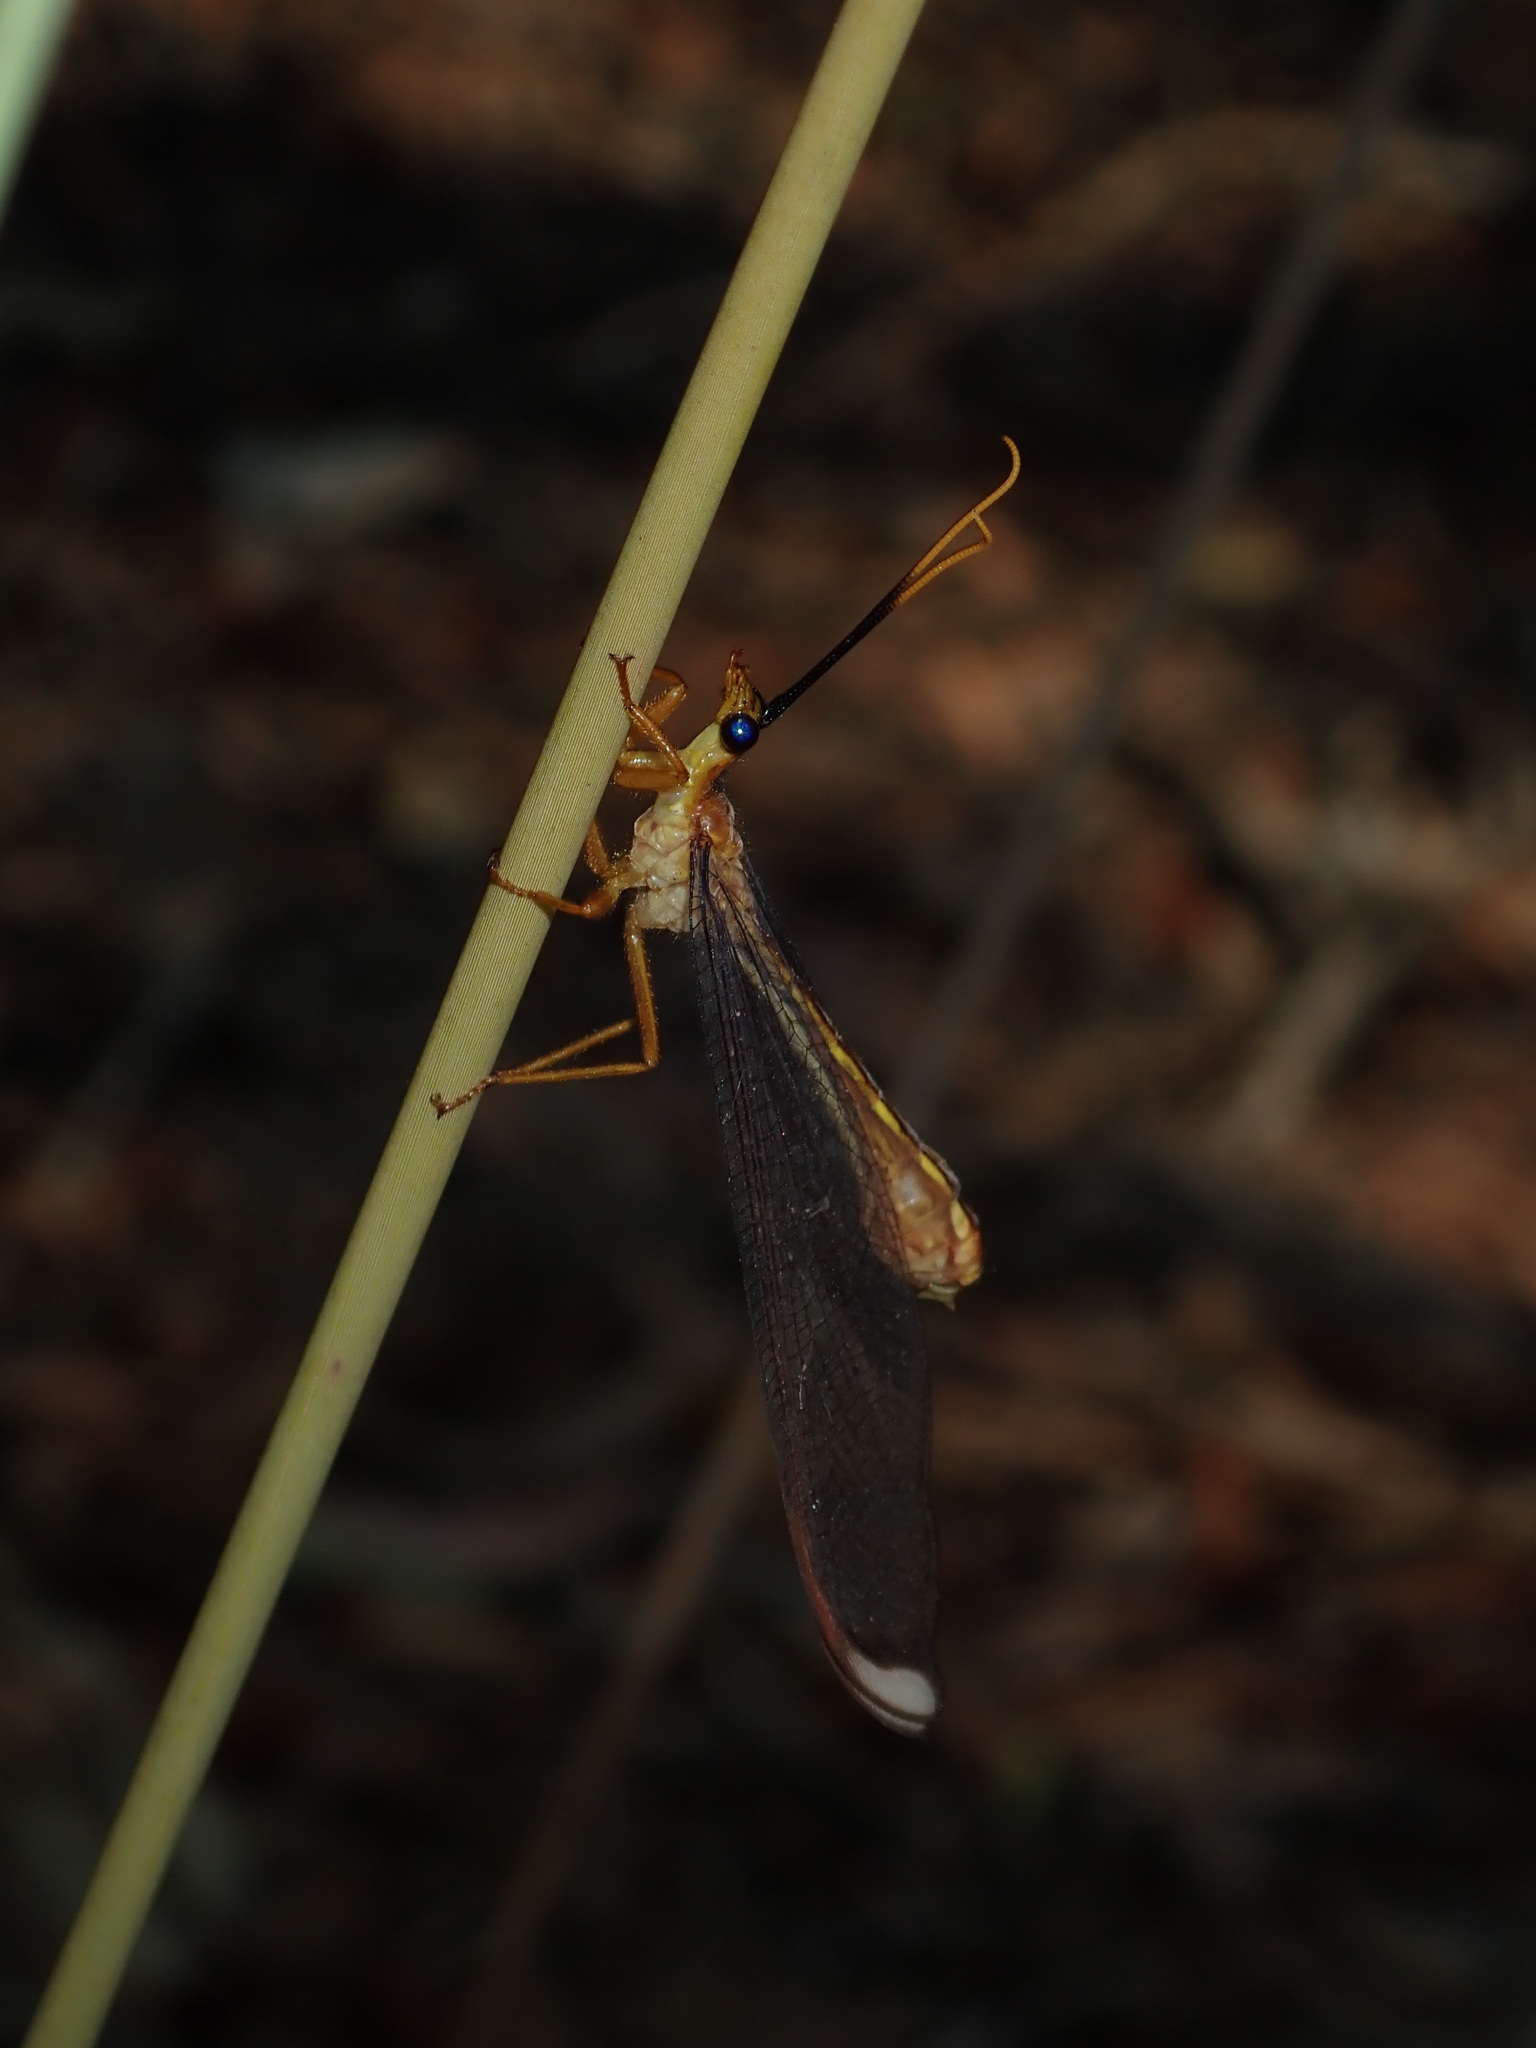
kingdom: Animalia
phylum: Arthropoda
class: Insecta
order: Neuroptera
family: Nymphidae
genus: Nymphes
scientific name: Nymphes myrmeleonoides
